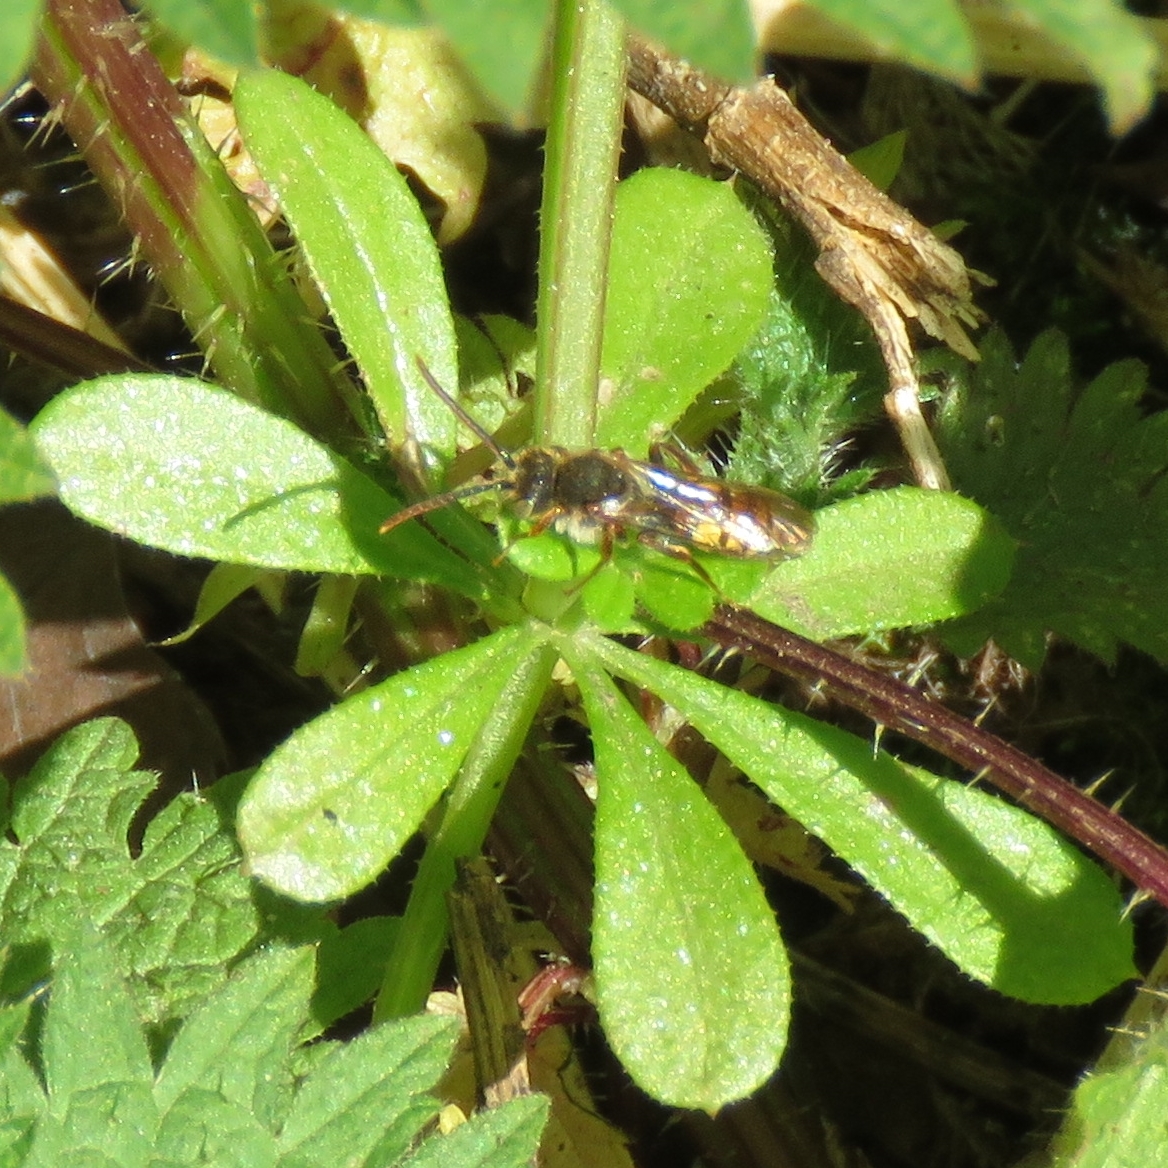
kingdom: Plantae
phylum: Tracheophyta
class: Magnoliopsida
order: Gentianales
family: Rubiaceae
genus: Galium
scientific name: Galium aparine
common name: Cleavers
